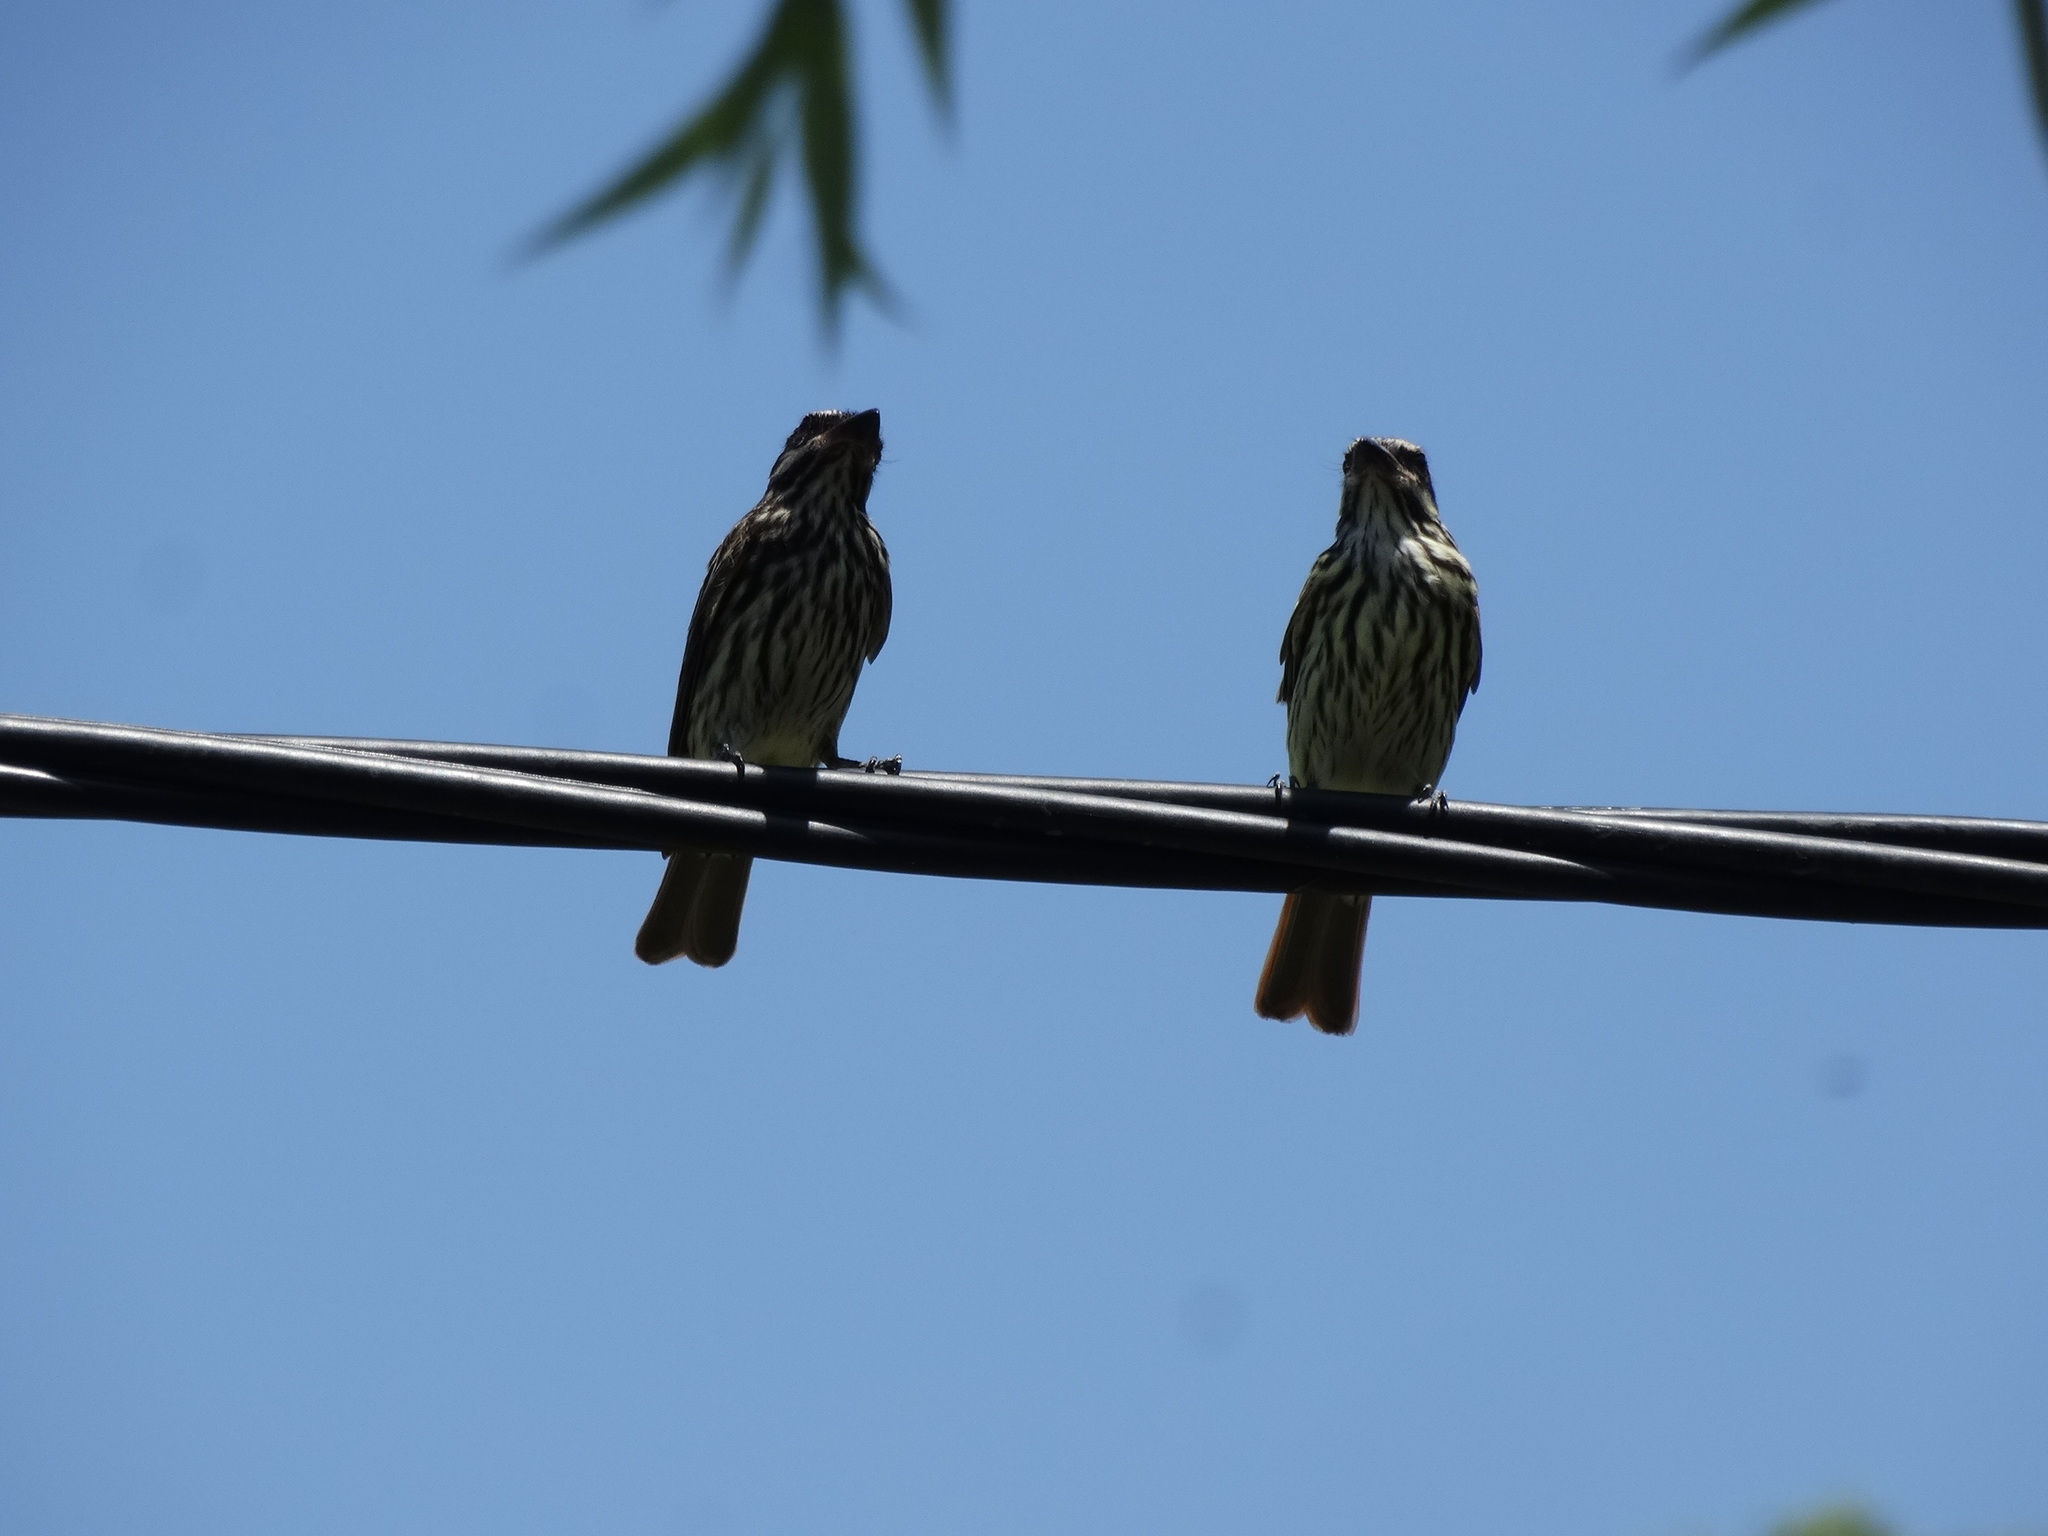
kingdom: Animalia
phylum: Chordata
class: Aves
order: Passeriformes
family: Tyrannidae
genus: Myiodynastes
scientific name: Myiodynastes maculatus
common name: Streaked flycatcher
